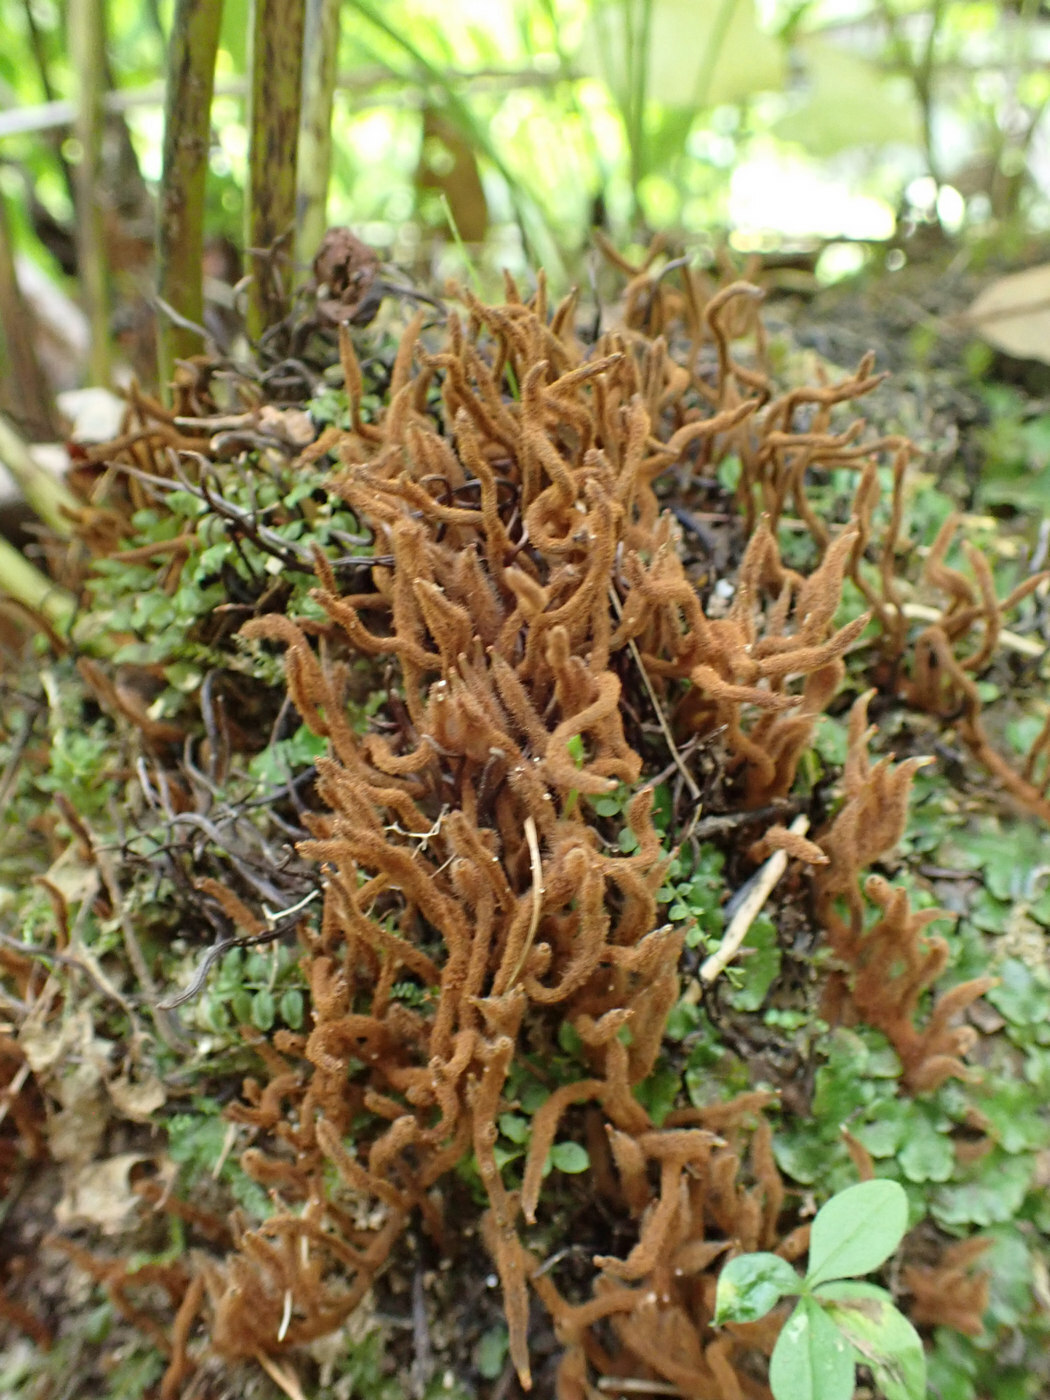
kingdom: Plantae
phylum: Tracheophyta
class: Polypodiopsida
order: Osmundales
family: Osmundaceae
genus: Osmunda
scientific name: Osmunda spectabilis
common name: American royal fern
